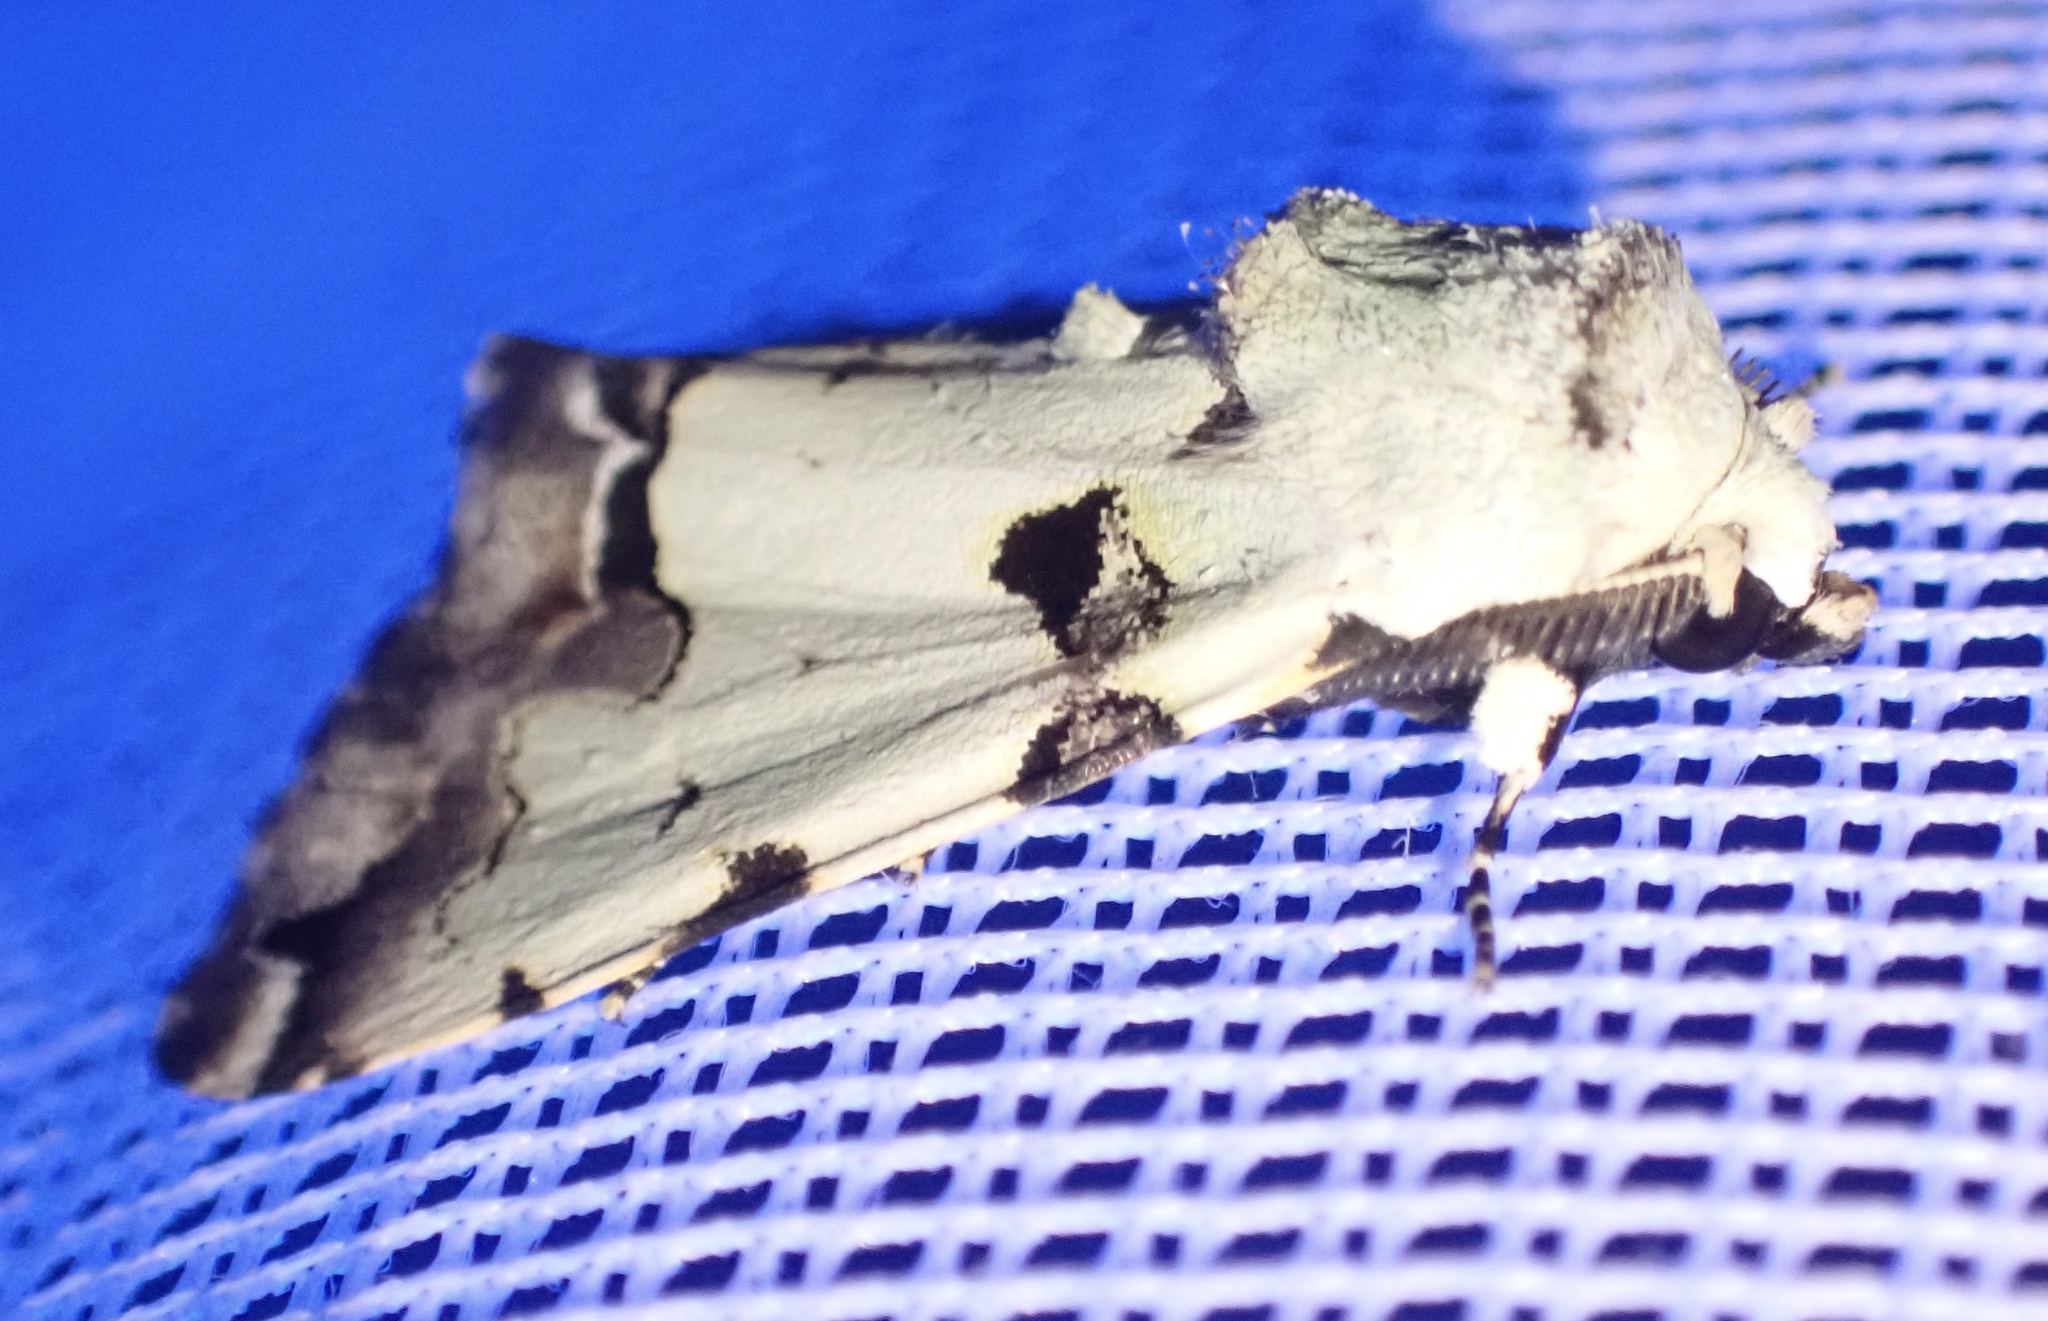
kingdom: Animalia
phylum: Arthropoda
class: Insecta
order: Lepidoptera
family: Erebidae
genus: Halochroa
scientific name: Halochroa aequatoria
